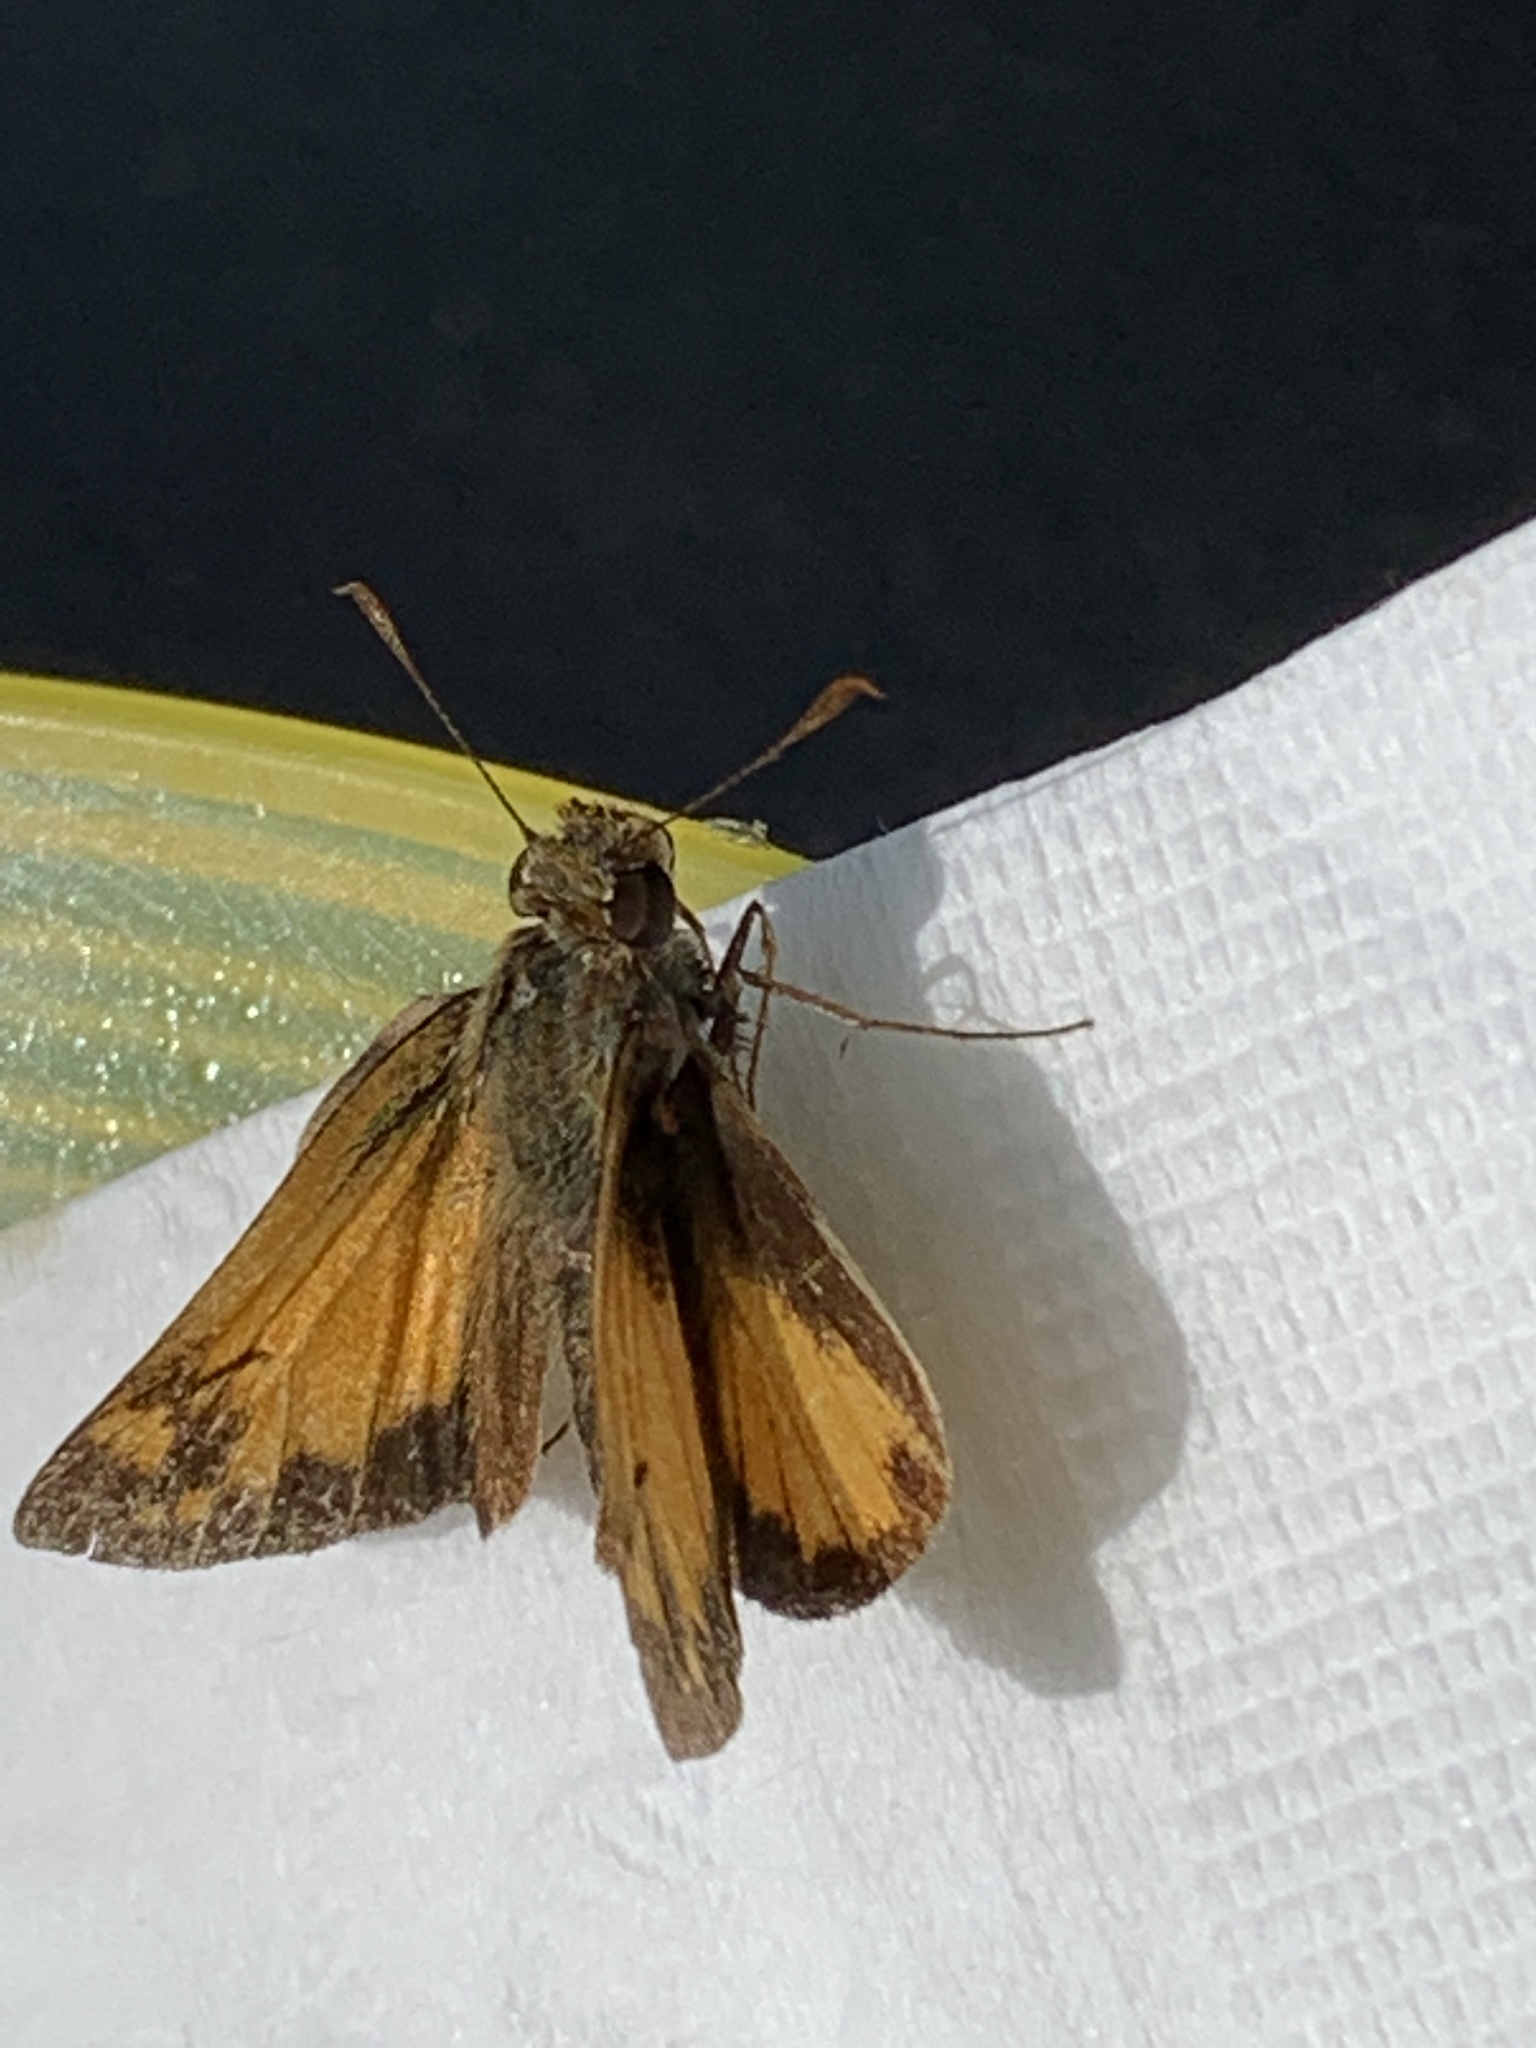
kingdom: Animalia
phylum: Arthropoda
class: Insecta
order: Lepidoptera
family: Hesperiidae
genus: Lon
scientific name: Lon zabulon
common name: Zabulon skipper
